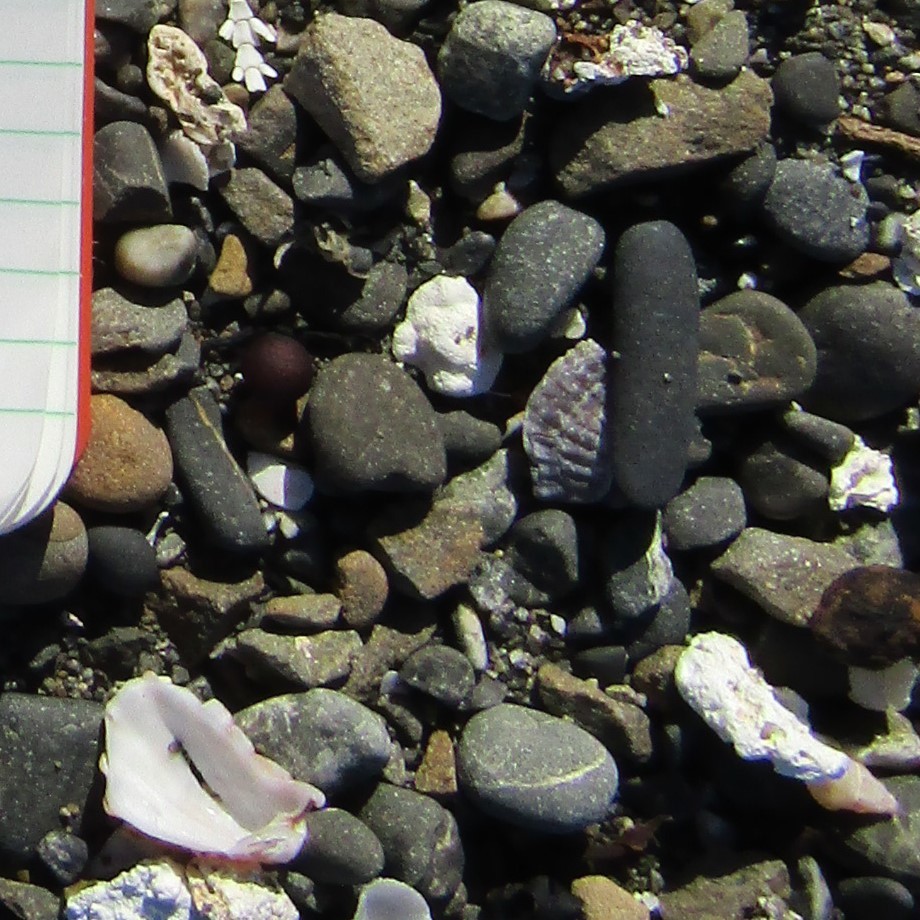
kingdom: Animalia
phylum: Brachiopoda
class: Rhynchonellata
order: Rhynchonellida
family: Notosariidae
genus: Notosaria
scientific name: Notosaria nigricans
